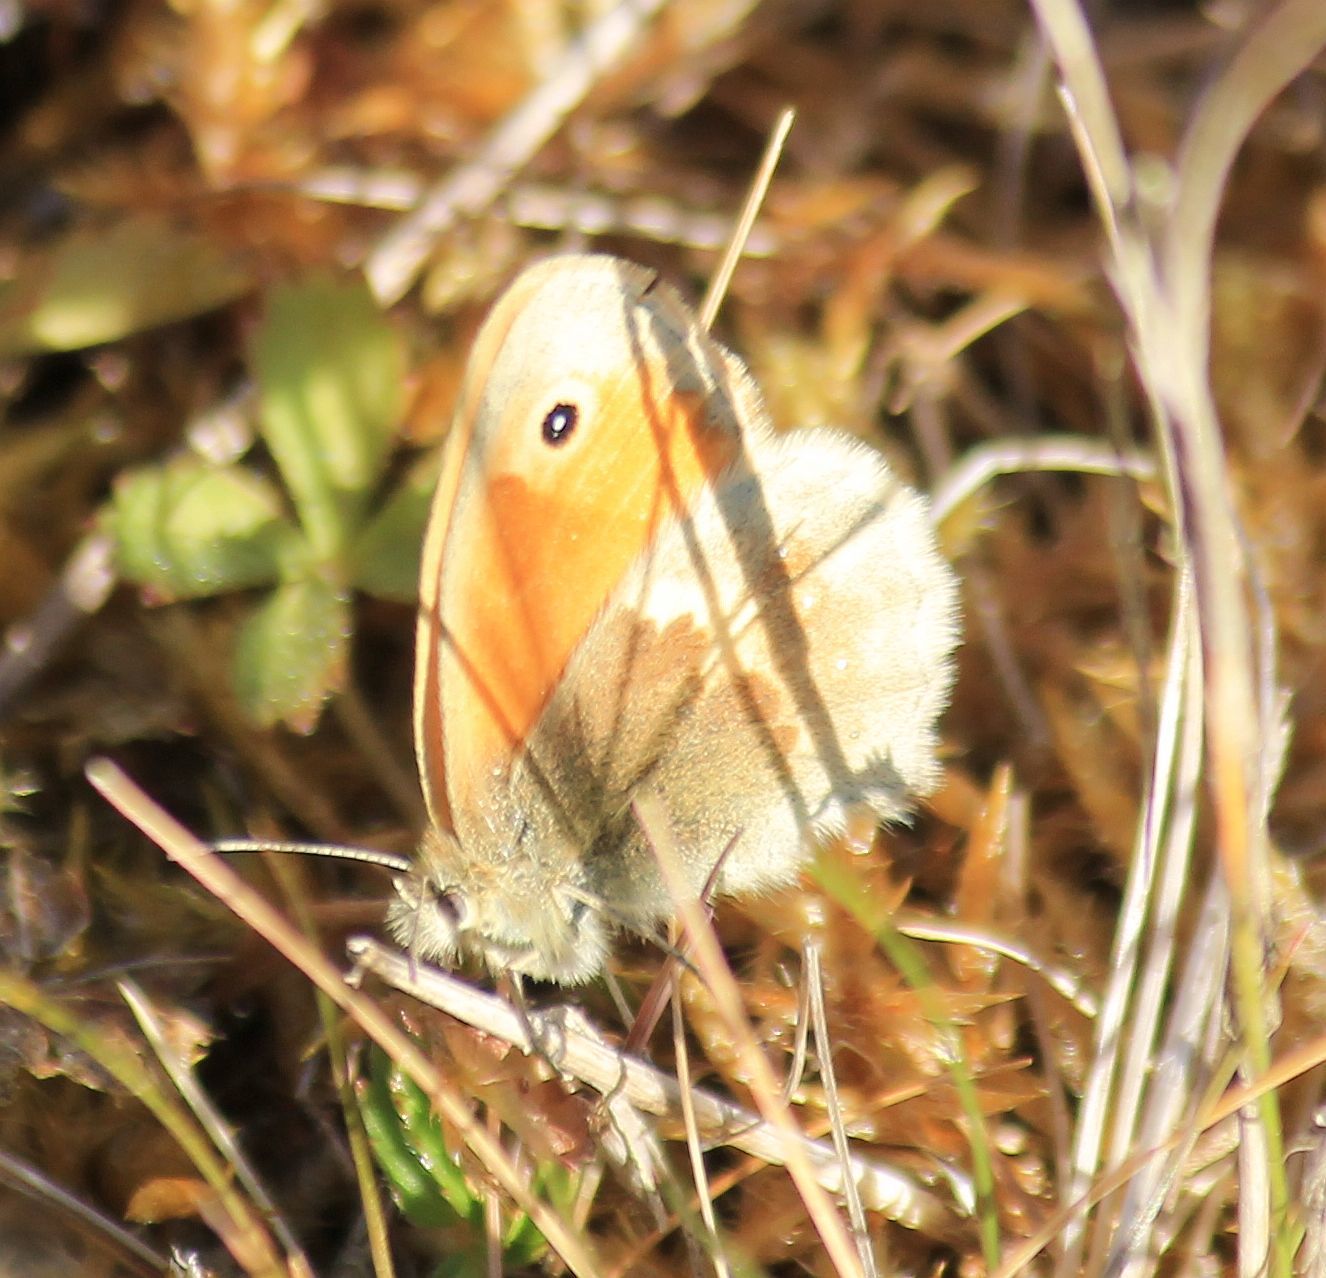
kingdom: Animalia
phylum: Arthropoda
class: Insecta
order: Lepidoptera
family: Nymphalidae
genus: Coenonympha
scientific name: Coenonympha pamphilus
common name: Small heath
